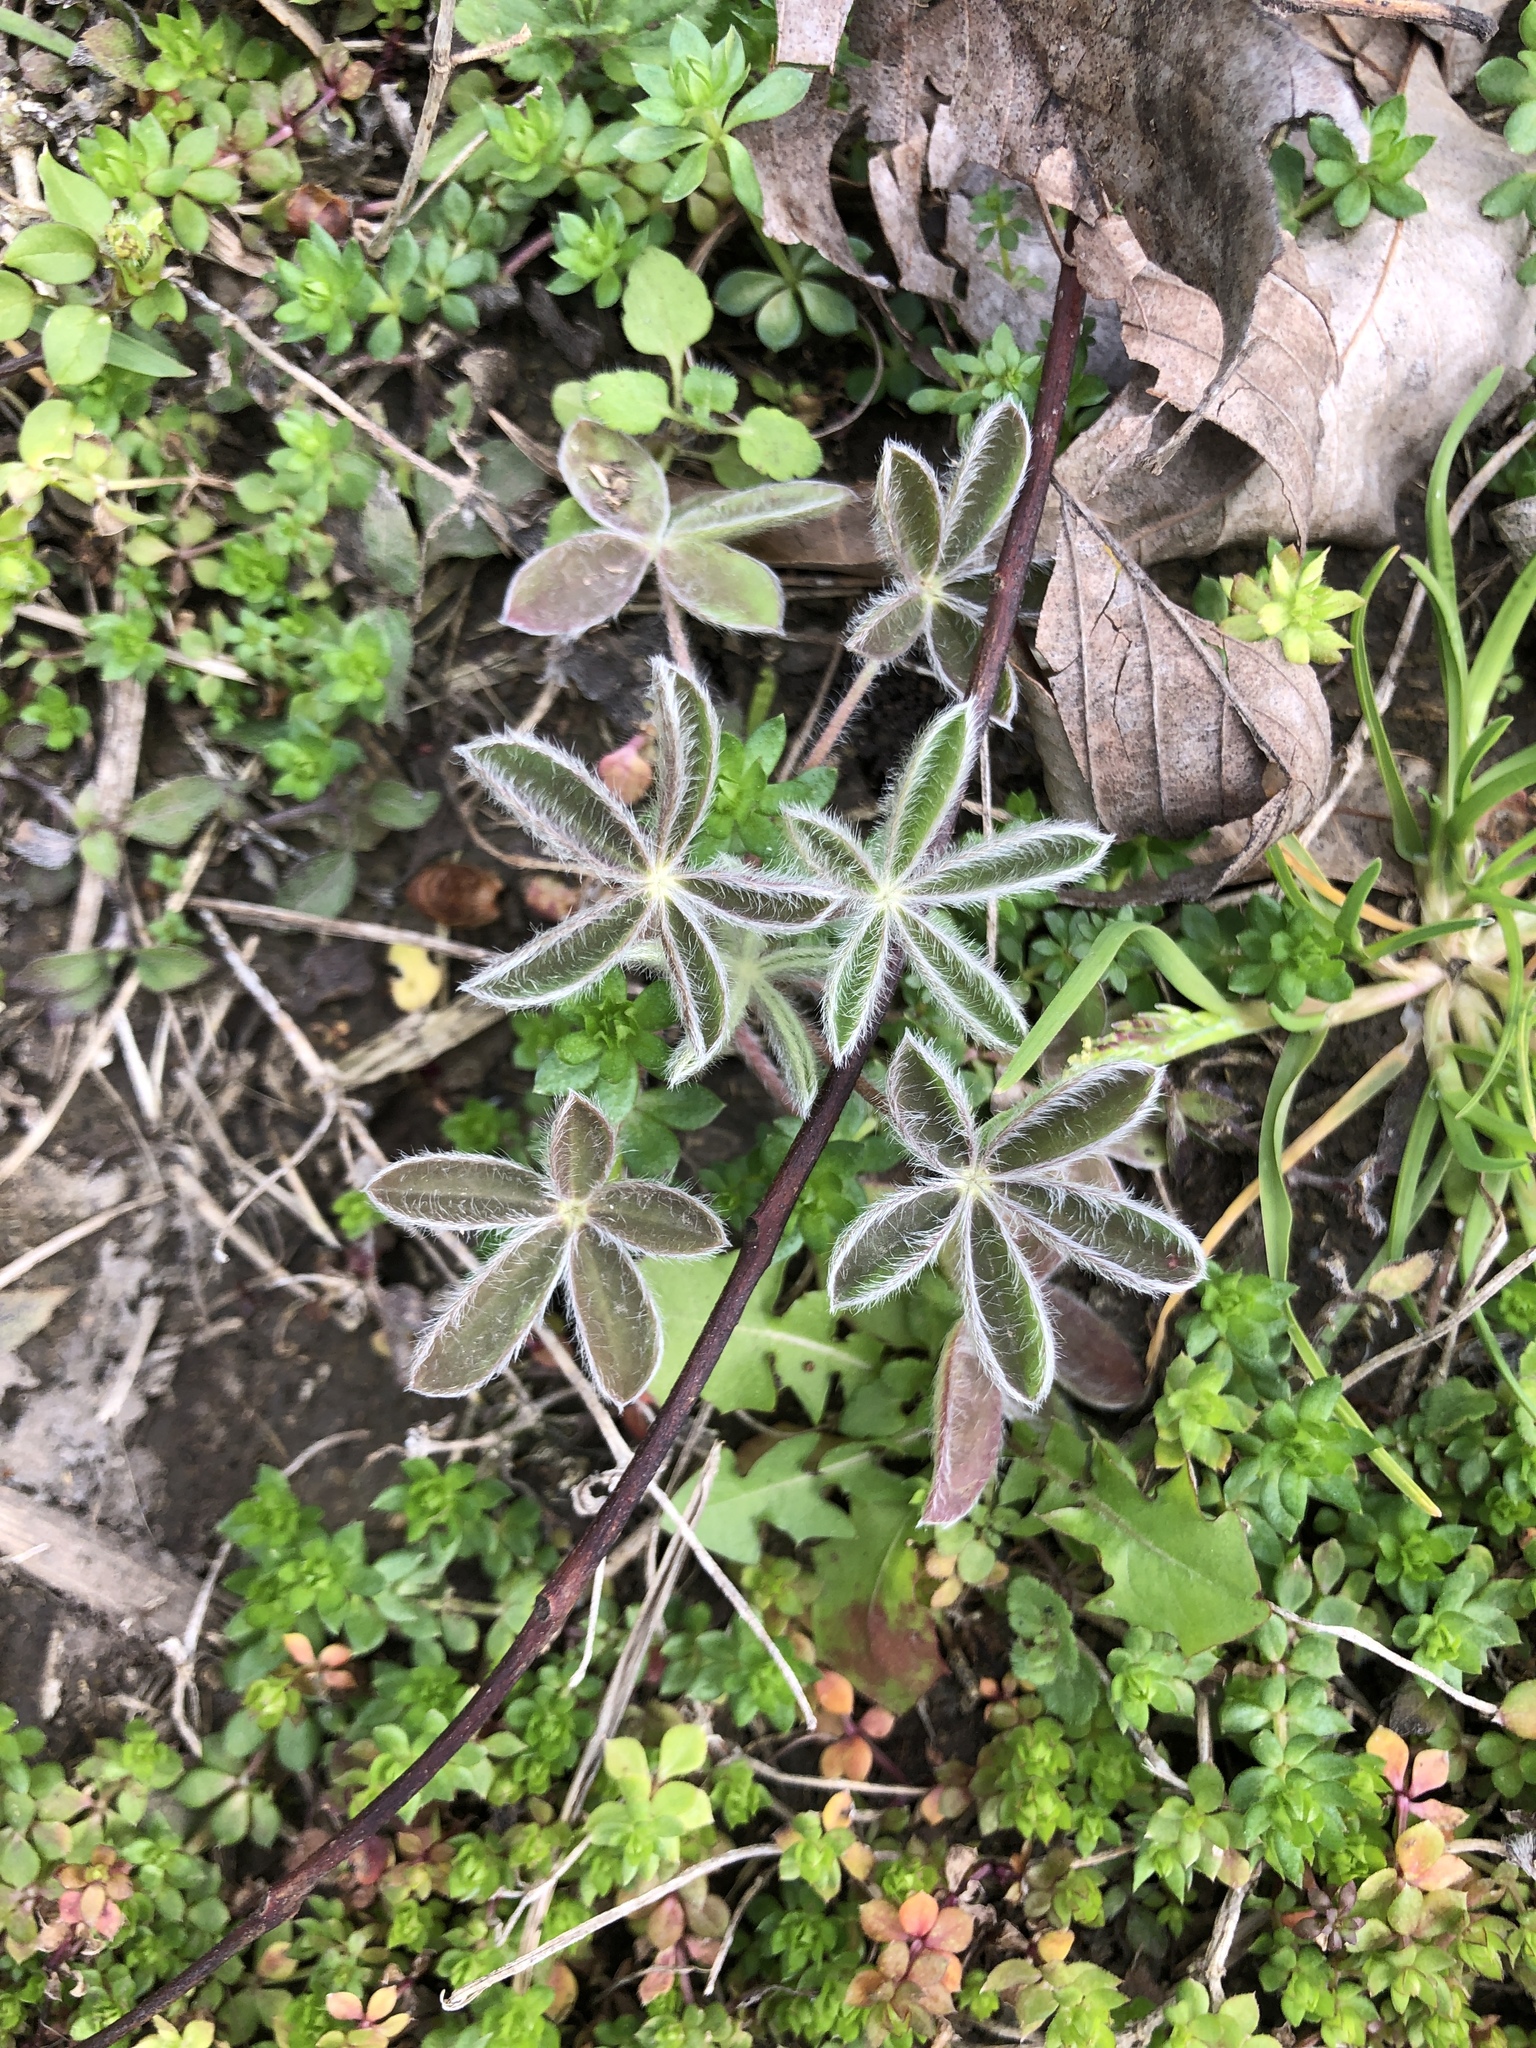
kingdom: Plantae
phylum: Tracheophyta
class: Magnoliopsida
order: Fabales
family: Fabaceae
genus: Lupinus
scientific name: Lupinus texensis
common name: Texas bluebonnet
